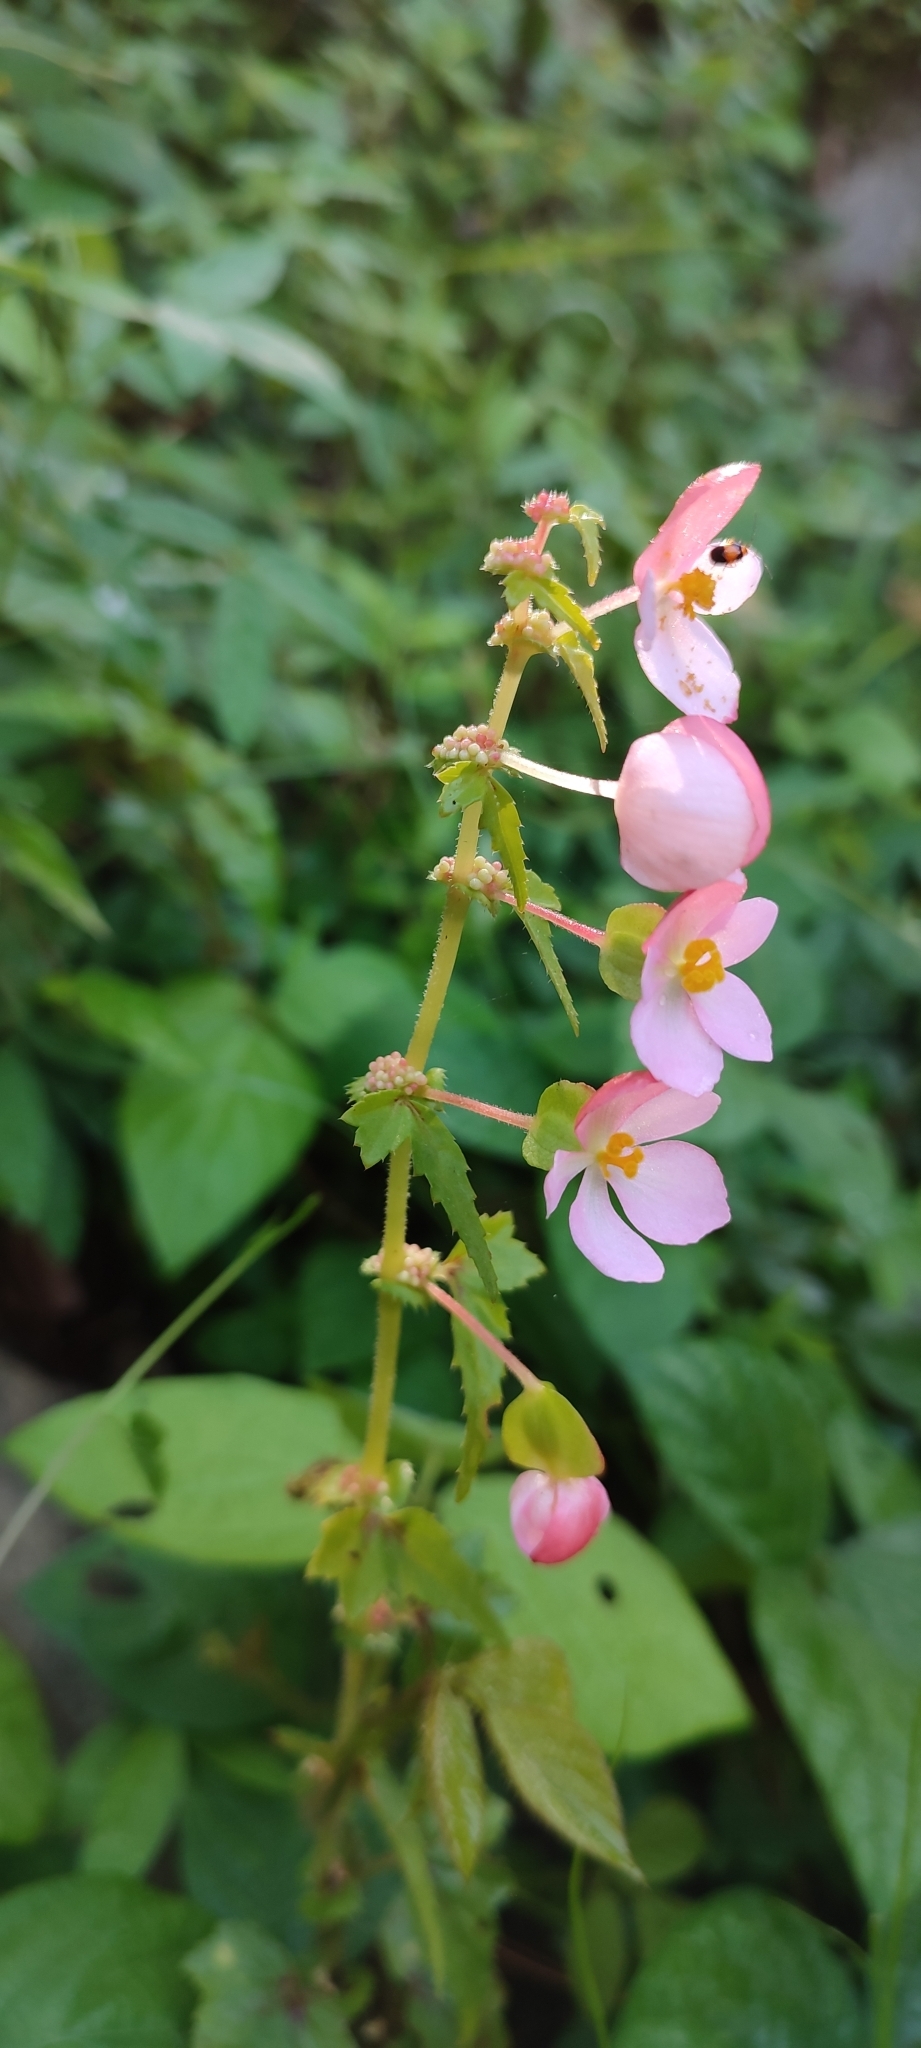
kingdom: Plantae
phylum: Tracheophyta
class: Magnoliopsida
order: Cucurbitales
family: Begoniaceae
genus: Begonia
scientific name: Begonia bulbillifera
